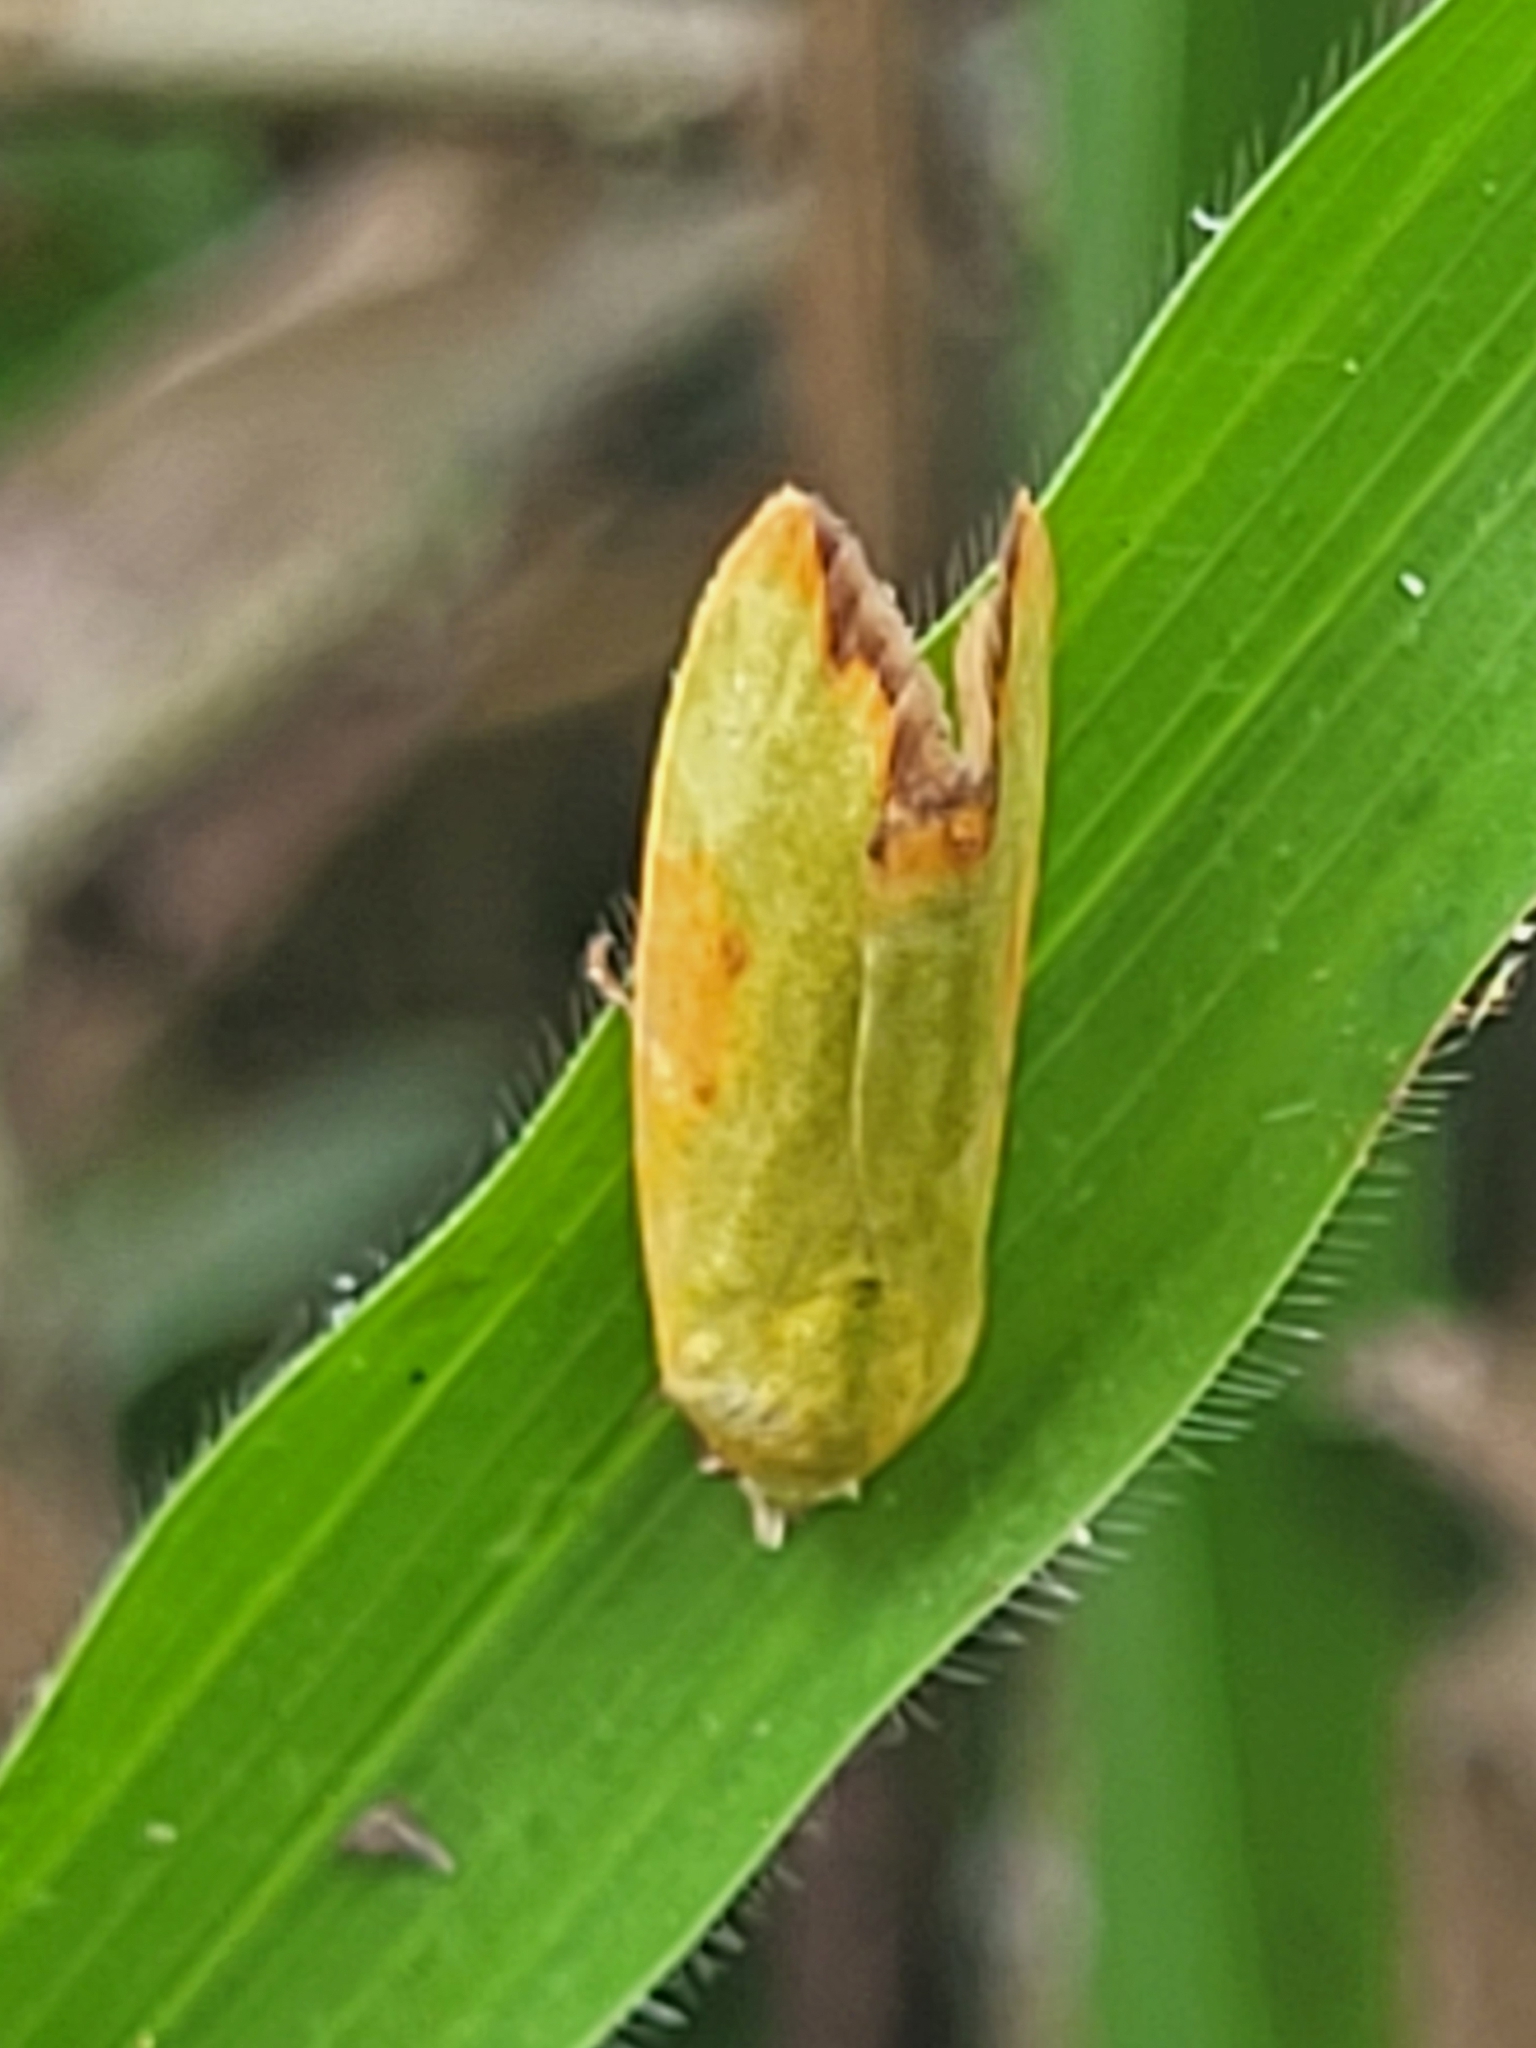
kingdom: Animalia
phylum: Arthropoda
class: Insecta
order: Lepidoptera
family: Nolidae
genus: Earias
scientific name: Earias cupreoviridis
